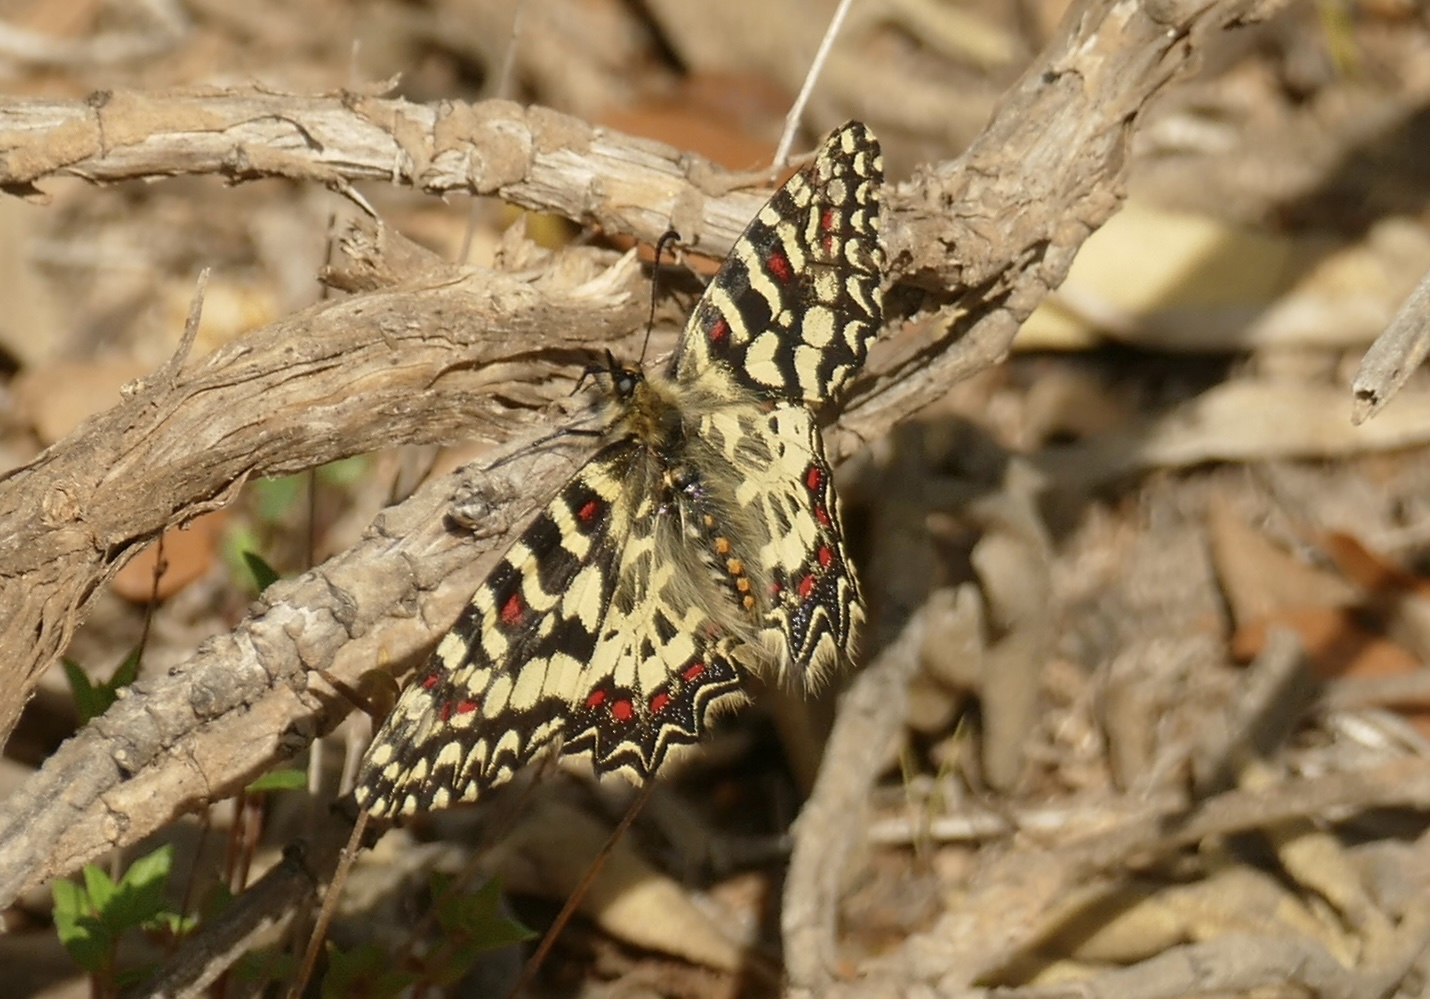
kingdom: Animalia
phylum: Arthropoda
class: Insecta
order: Lepidoptera
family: Papilionidae
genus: Zerynthia
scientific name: Zerynthia rumina
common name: Spanish festoon
